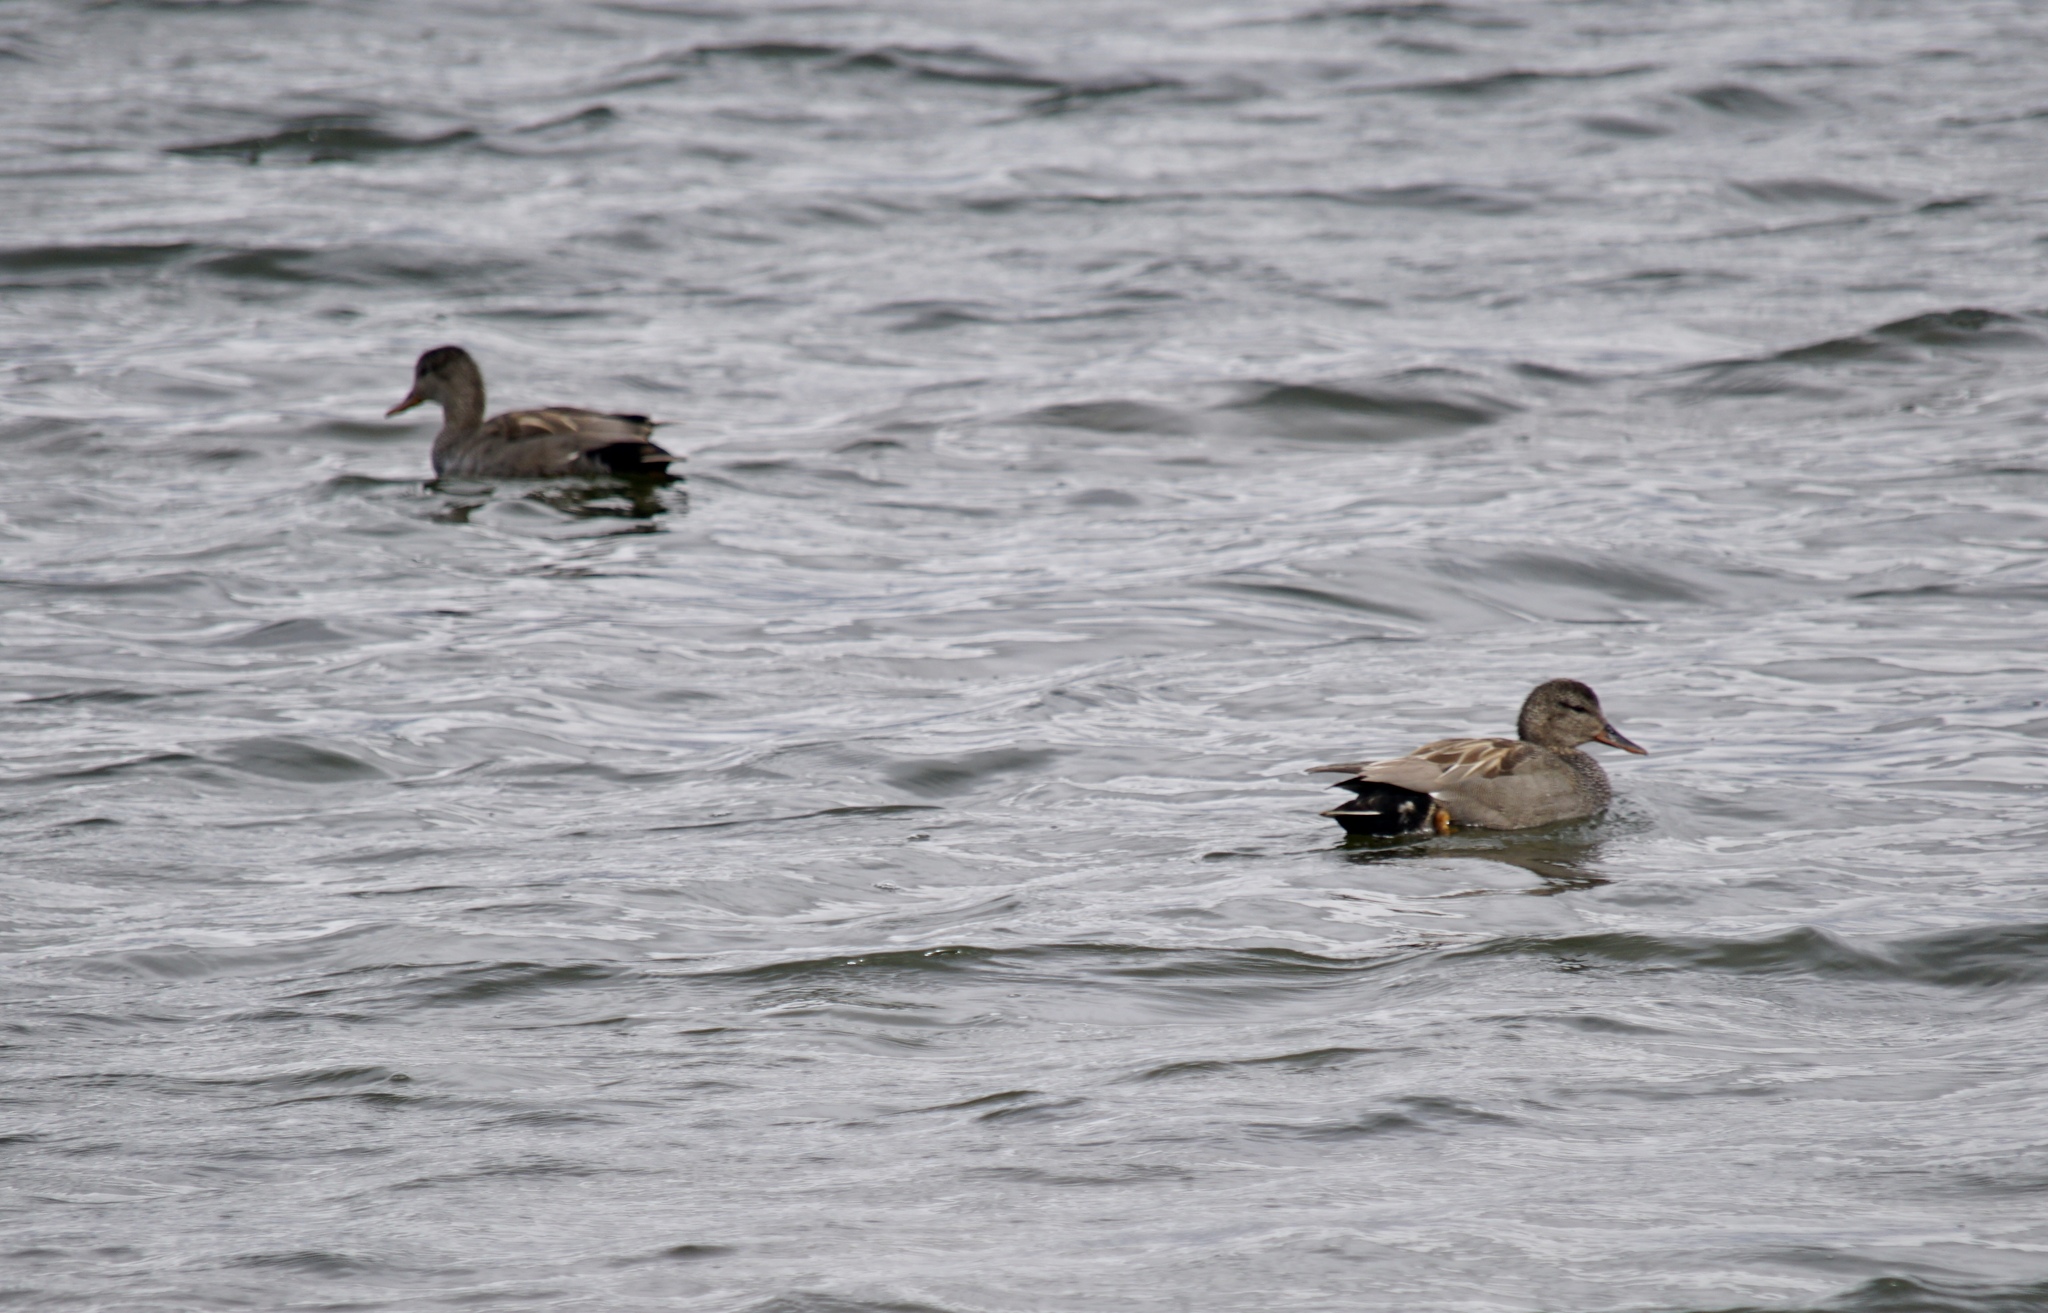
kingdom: Animalia
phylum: Chordata
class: Aves
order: Anseriformes
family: Anatidae
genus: Mareca
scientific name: Mareca strepera
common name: Gadwall
